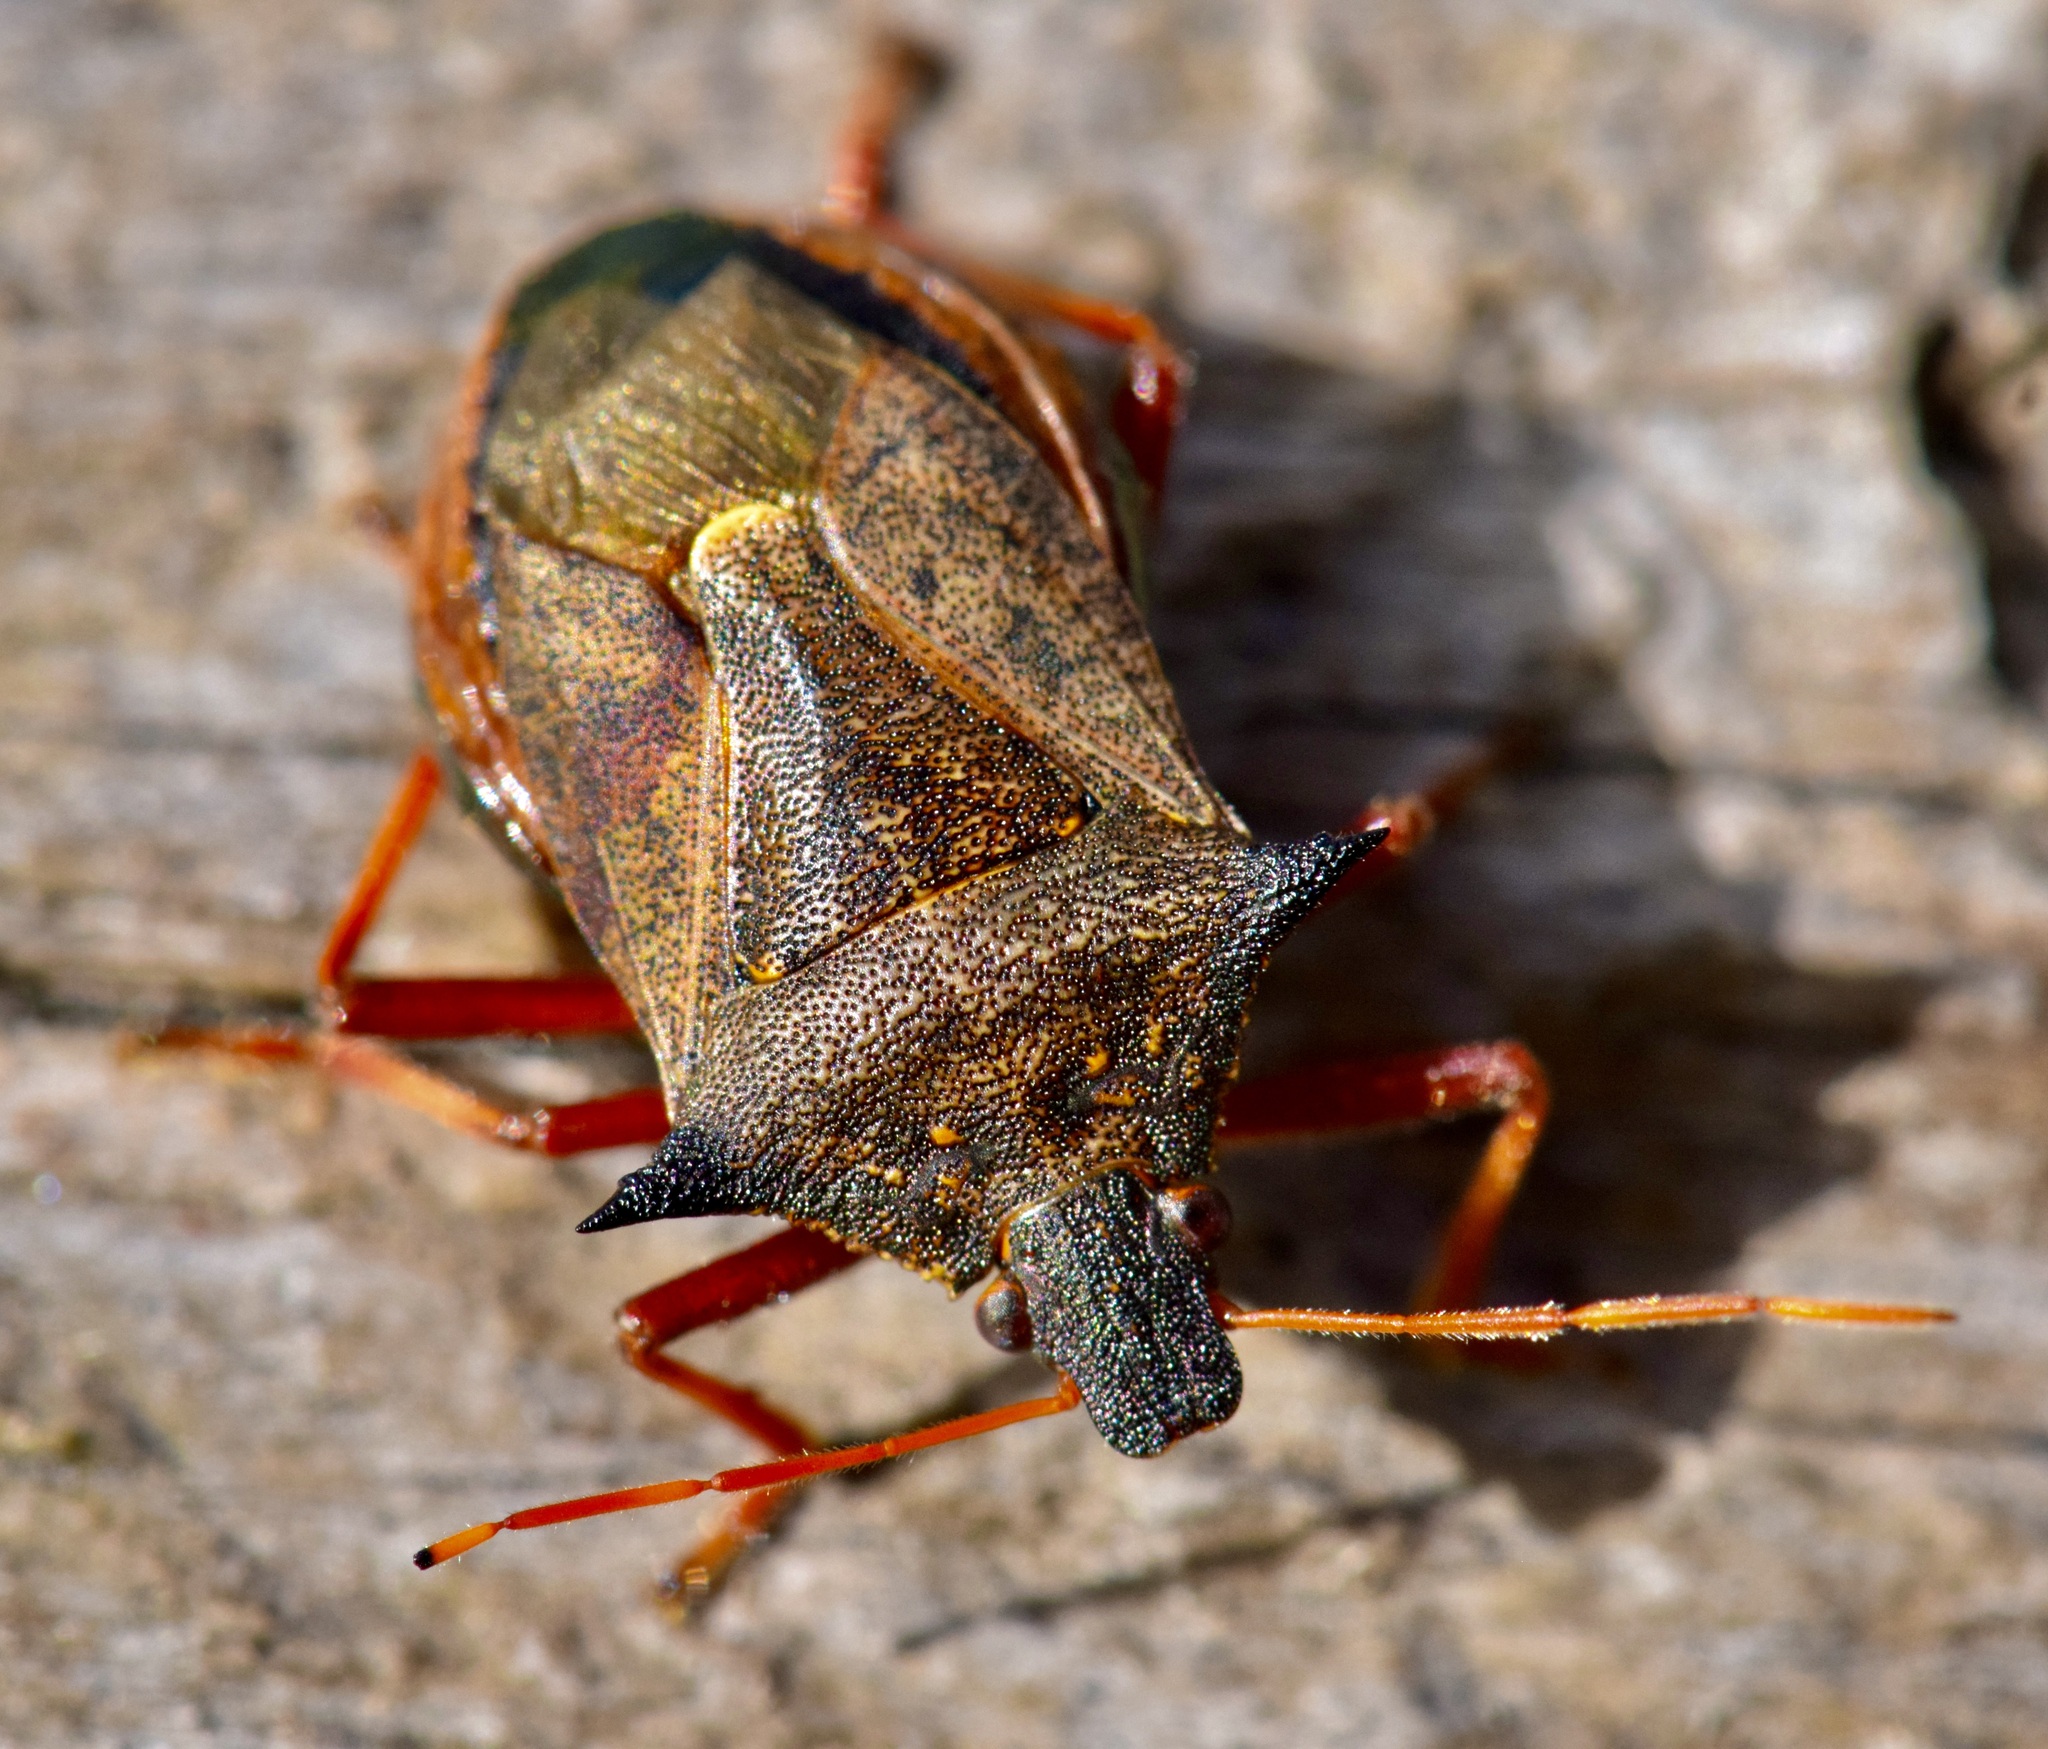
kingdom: Animalia
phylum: Arthropoda
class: Insecta
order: Hemiptera
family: Pentatomidae
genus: Picromerus
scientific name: Picromerus bidens
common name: Spiked shieldbug
